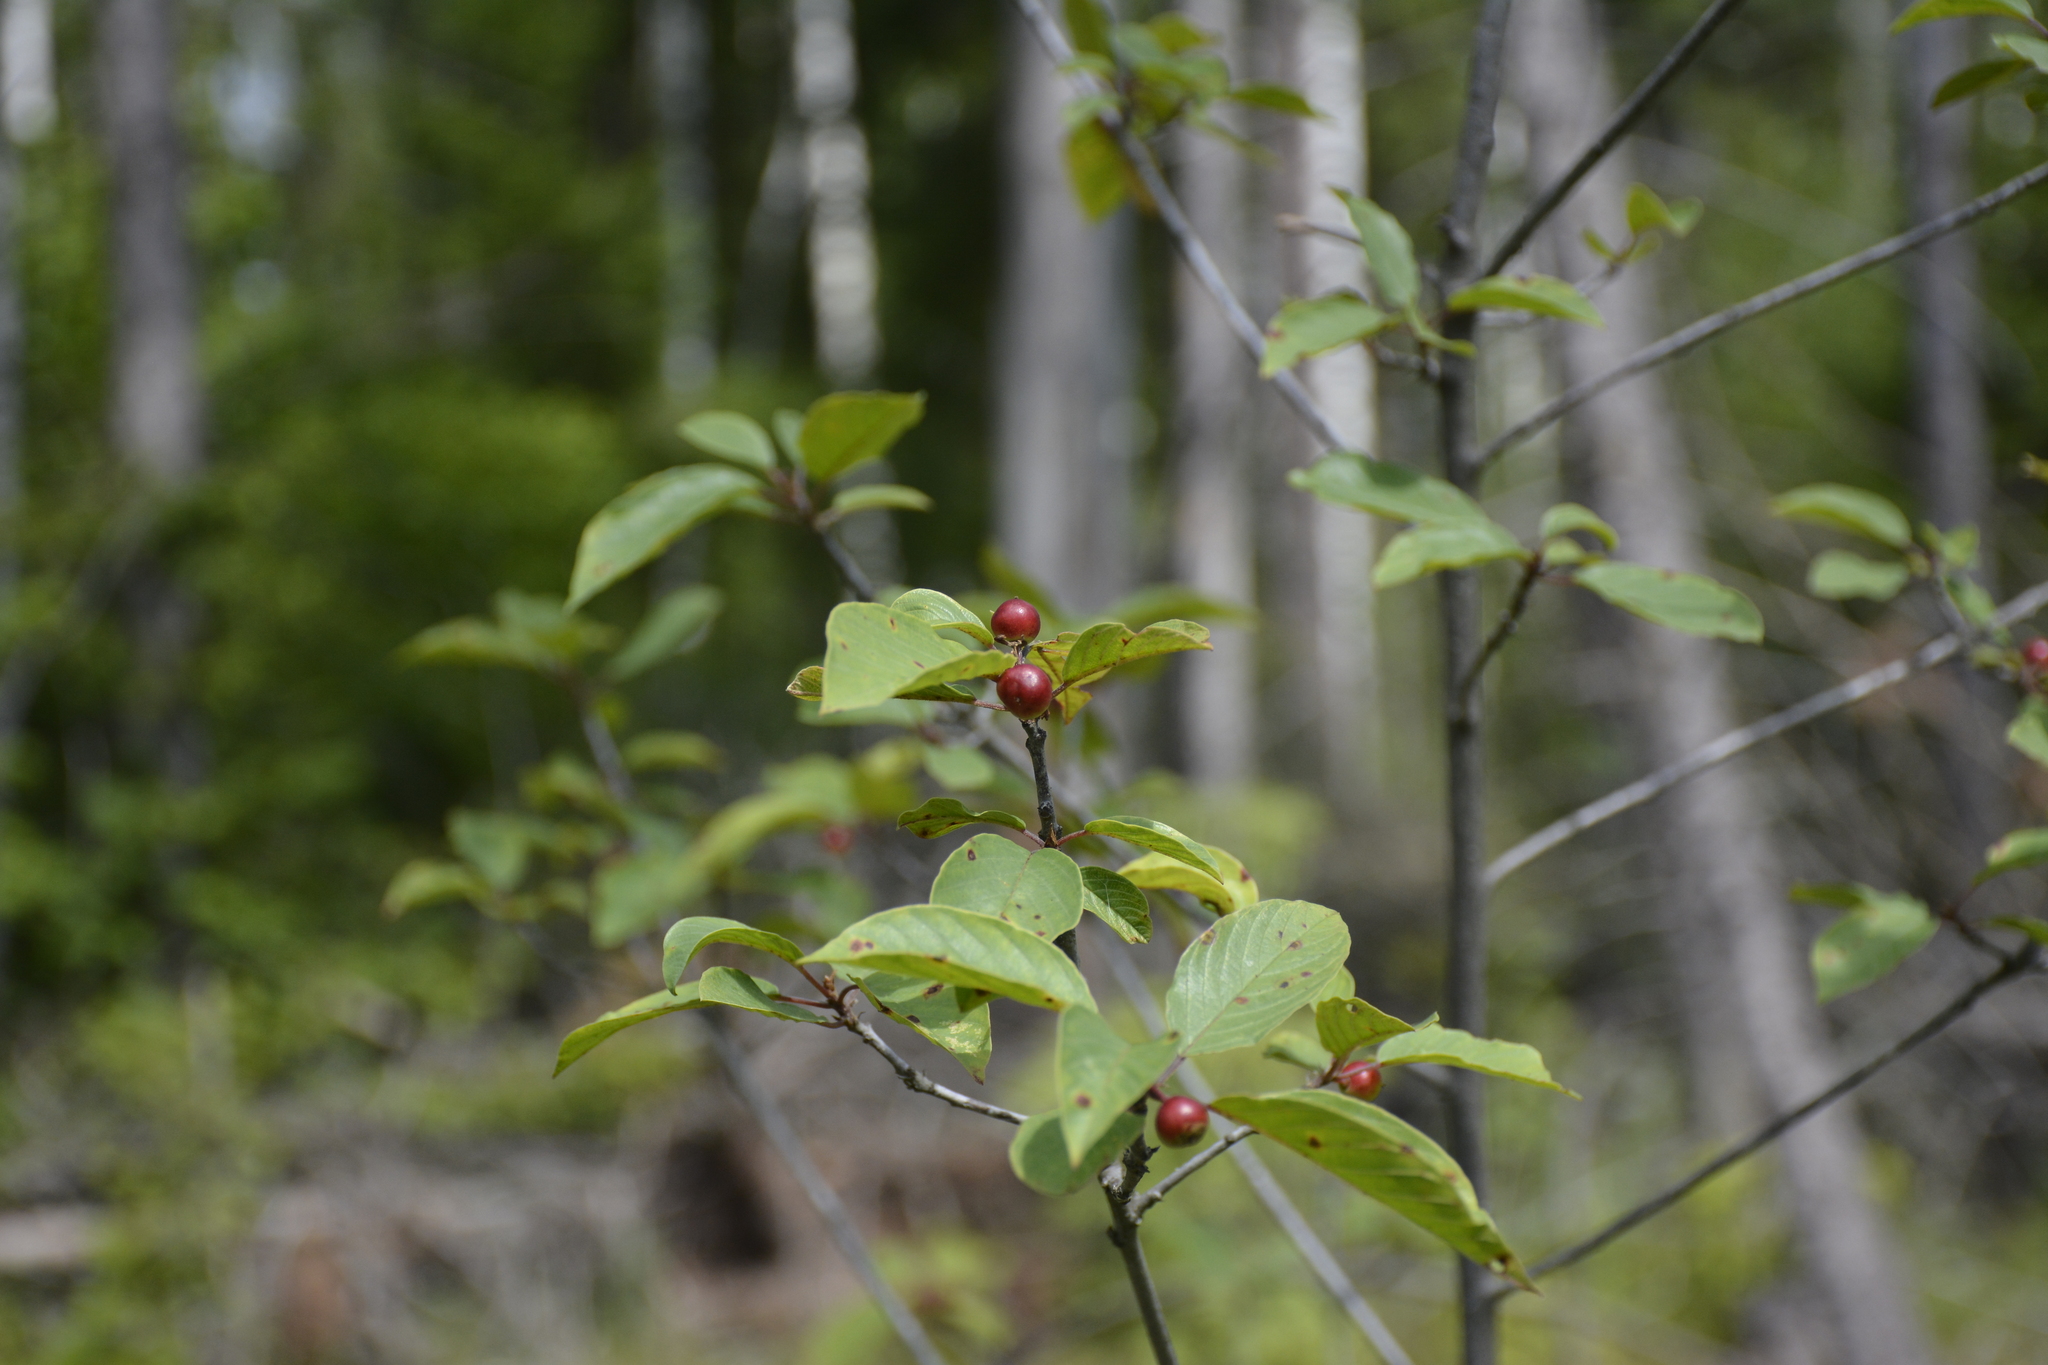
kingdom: Plantae
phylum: Tracheophyta
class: Magnoliopsida
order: Rosales
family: Rhamnaceae
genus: Frangula
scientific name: Frangula alnus
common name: Alder buckthorn
